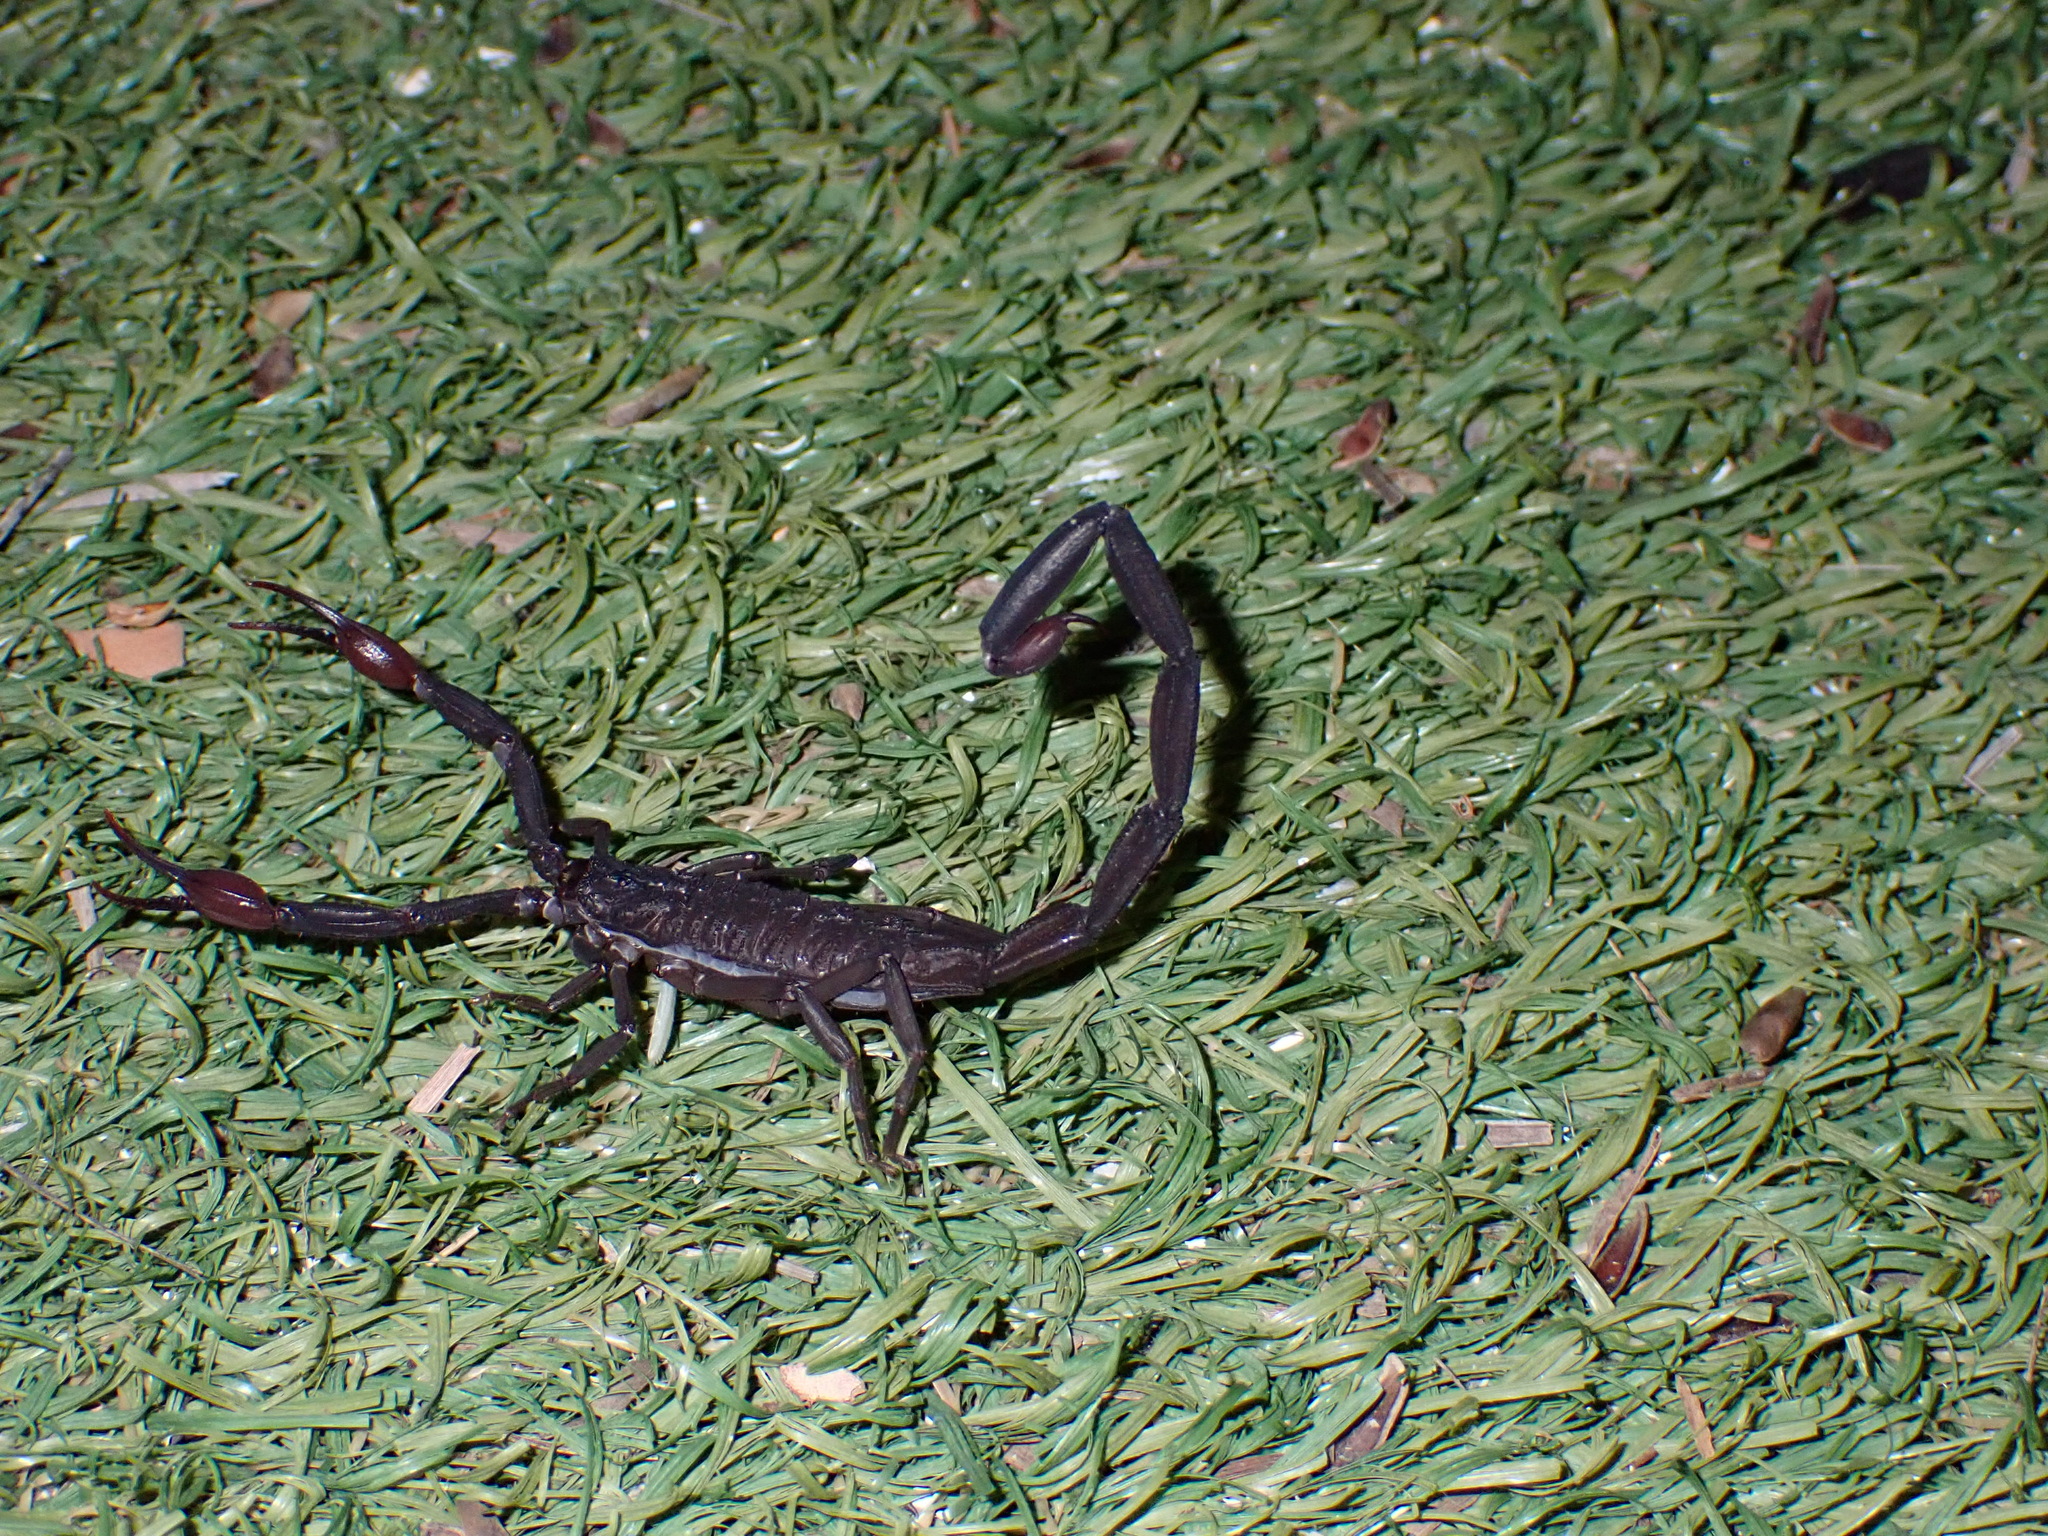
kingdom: Animalia
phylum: Arthropoda
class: Arachnida
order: Scorpiones
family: Buthidae
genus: Centruroides
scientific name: Centruroides gracilis
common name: Scorpions
